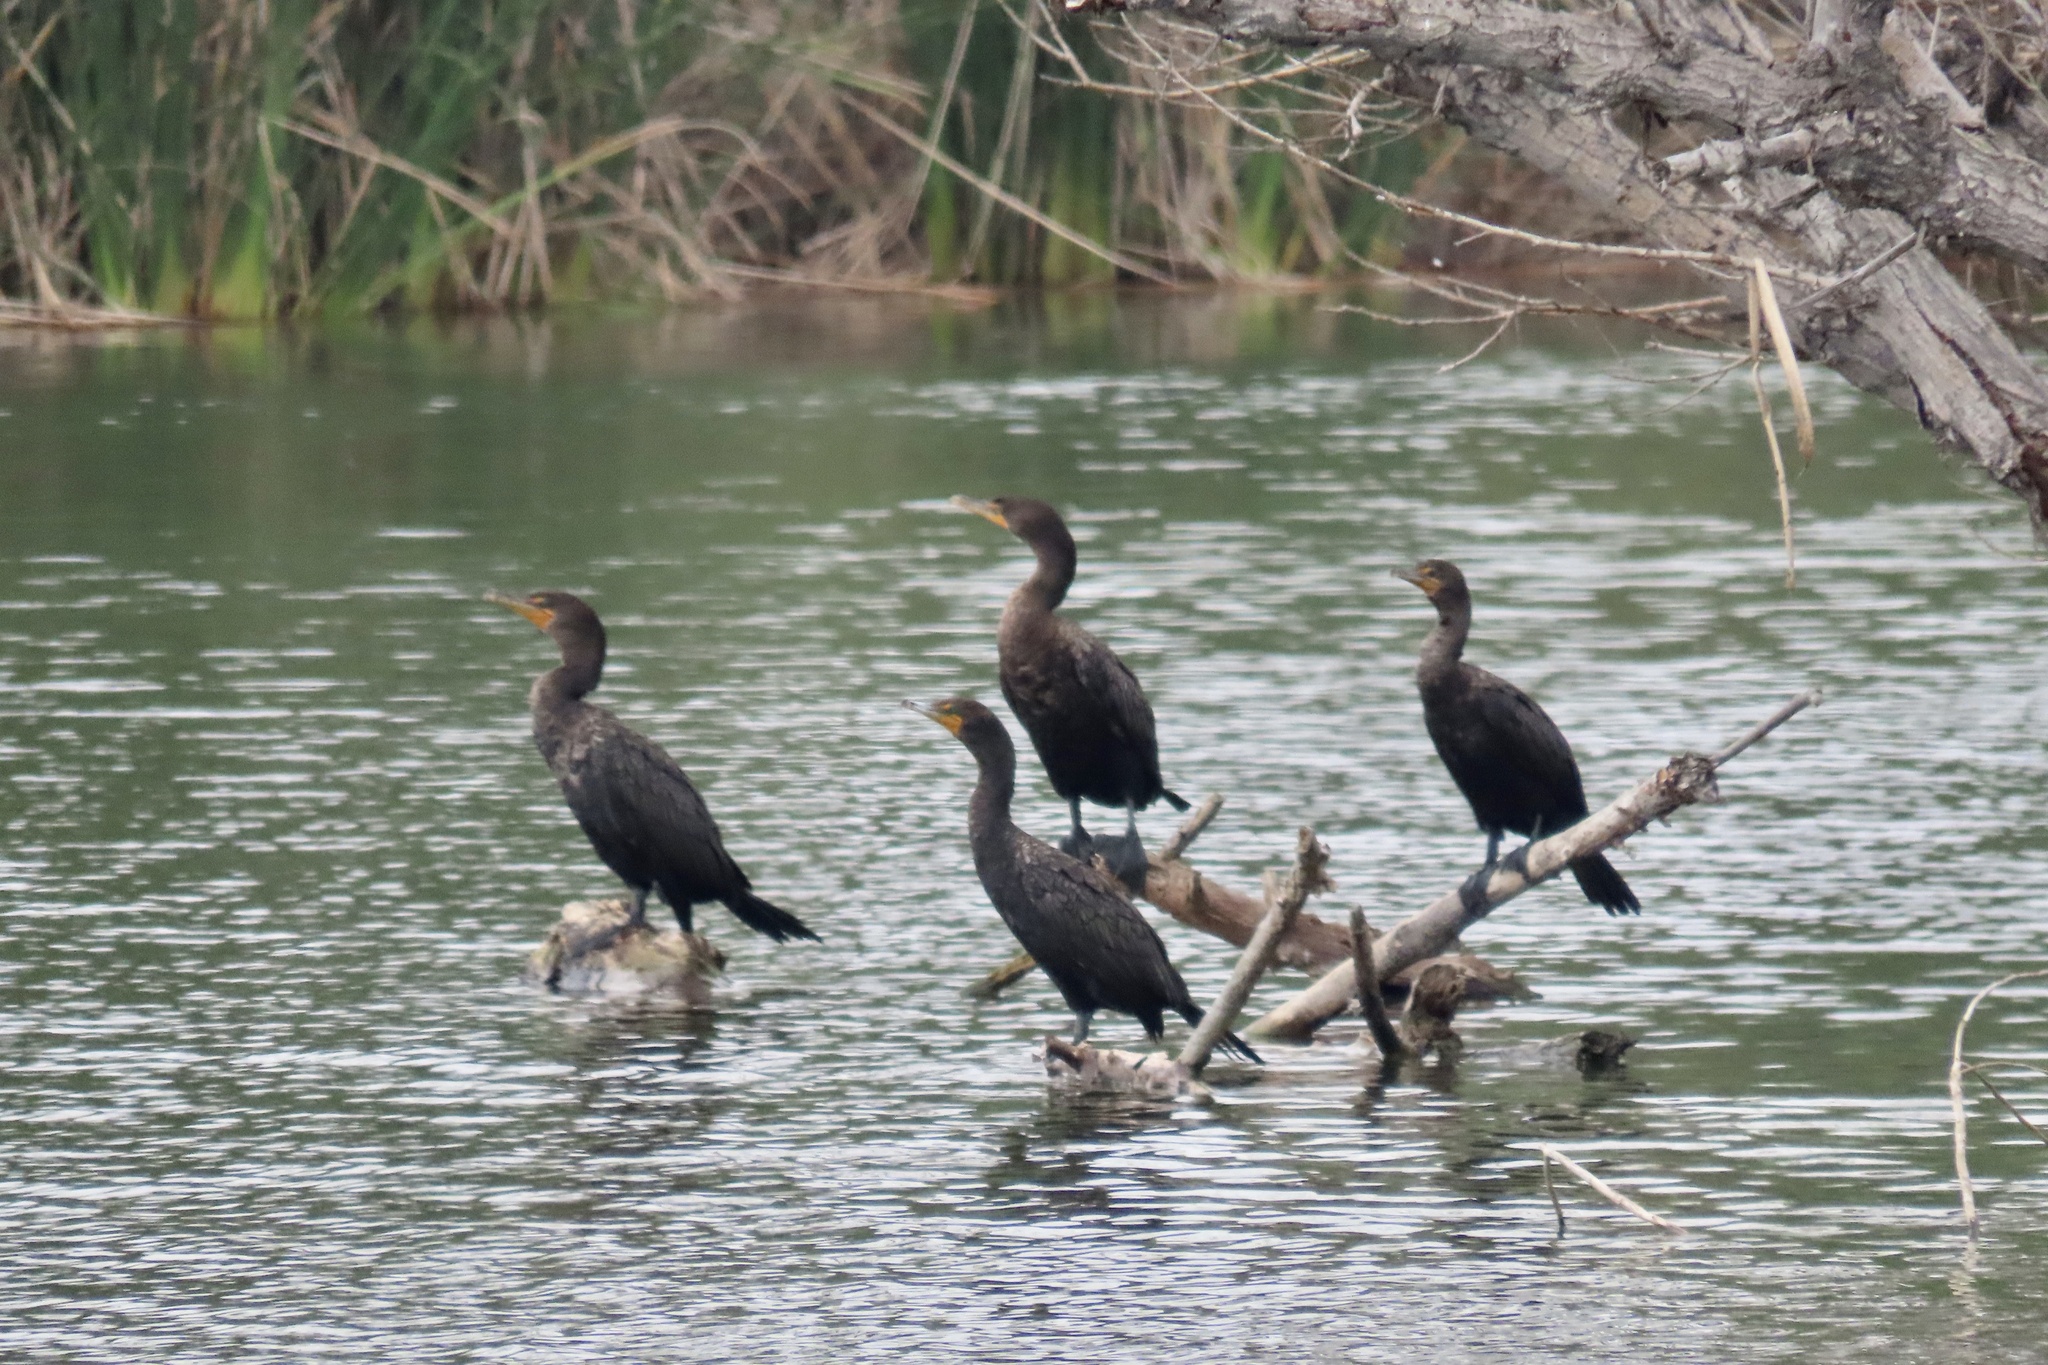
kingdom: Animalia
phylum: Chordata
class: Aves
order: Suliformes
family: Phalacrocoracidae
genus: Phalacrocorax
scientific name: Phalacrocorax auritus
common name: Double-crested cormorant
